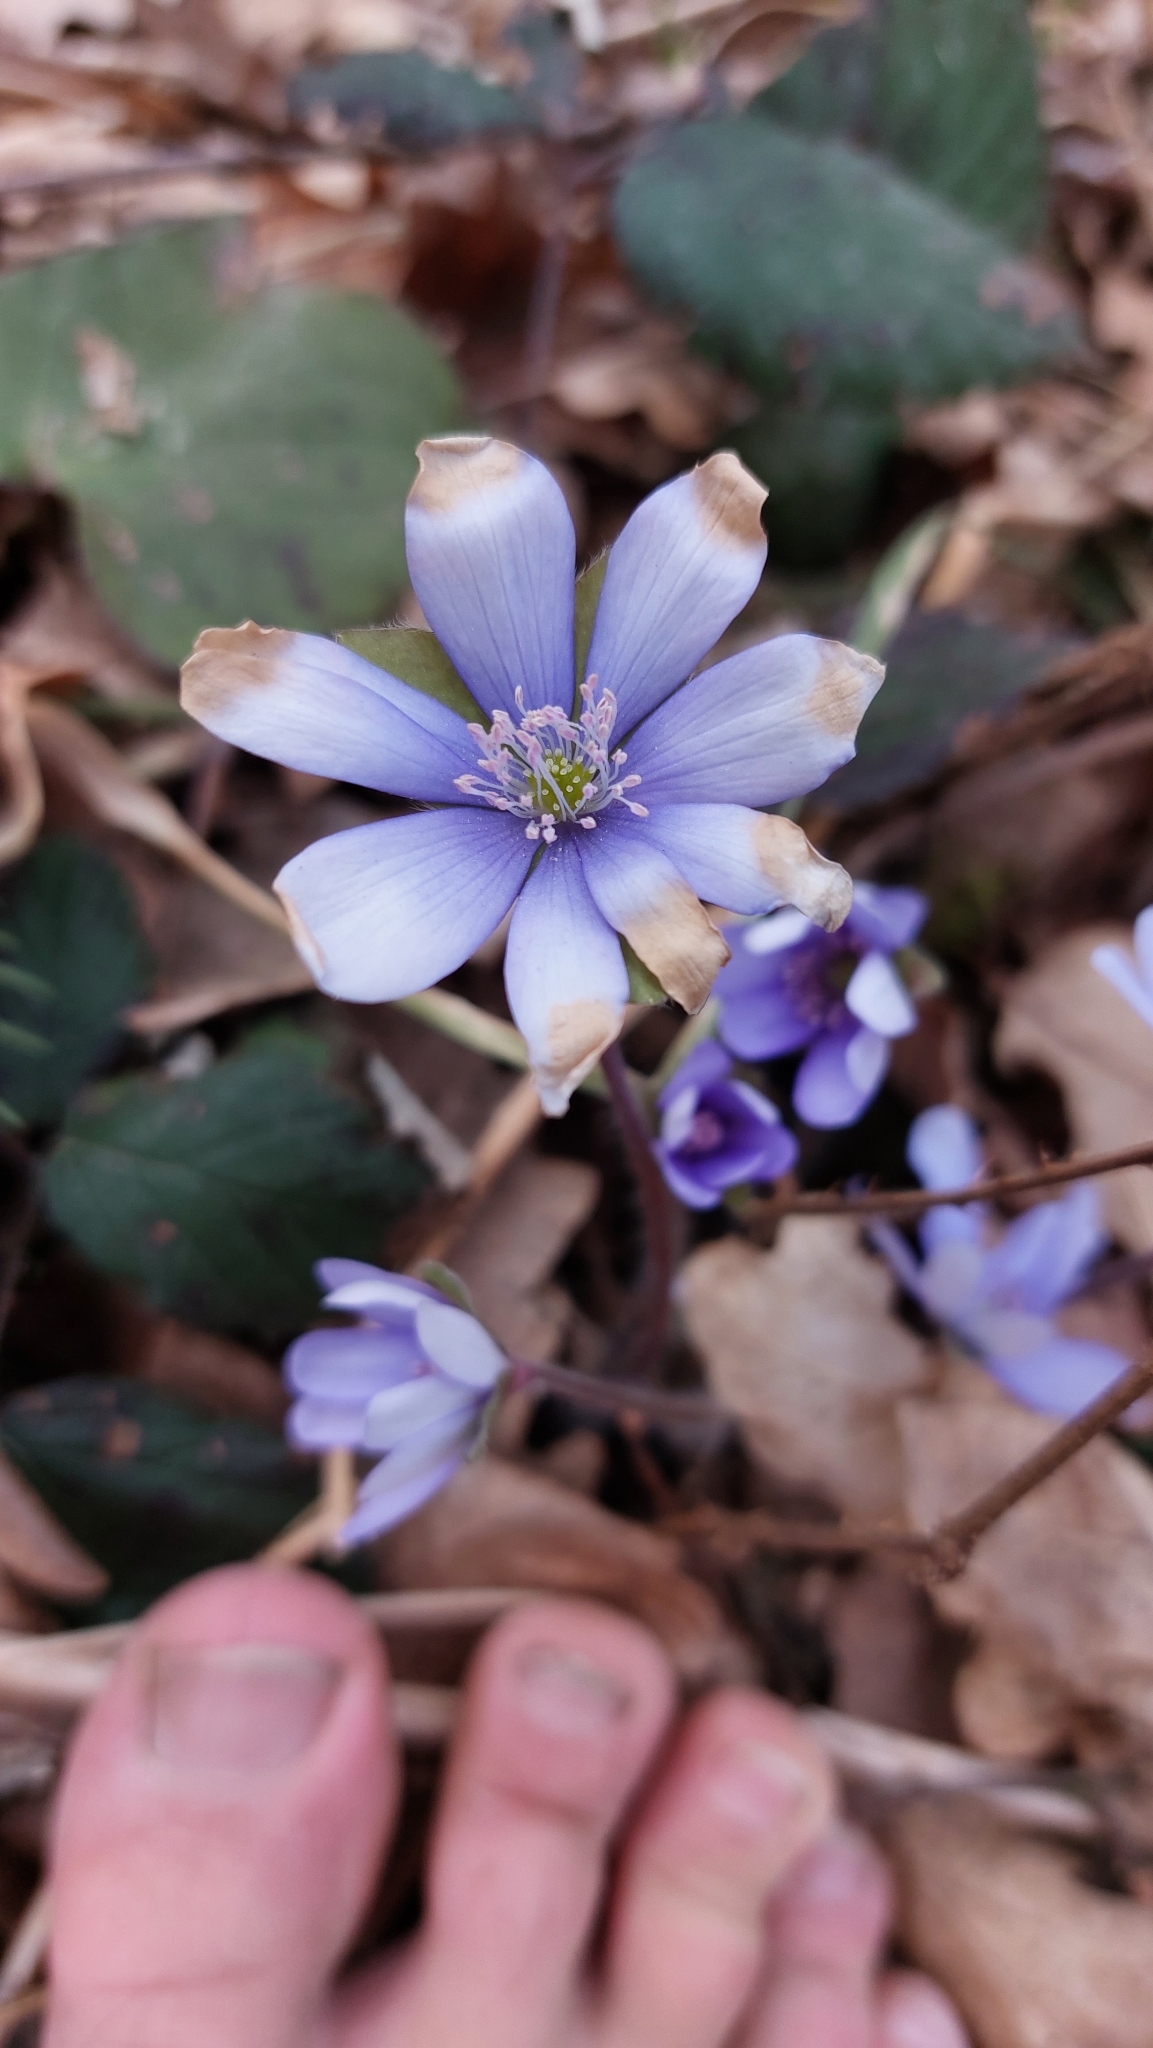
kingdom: Plantae
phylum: Tracheophyta
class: Magnoliopsida
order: Ranunculales
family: Ranunculaceae
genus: Hepatica
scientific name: Hepatica nobilis
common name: Liverleaf
